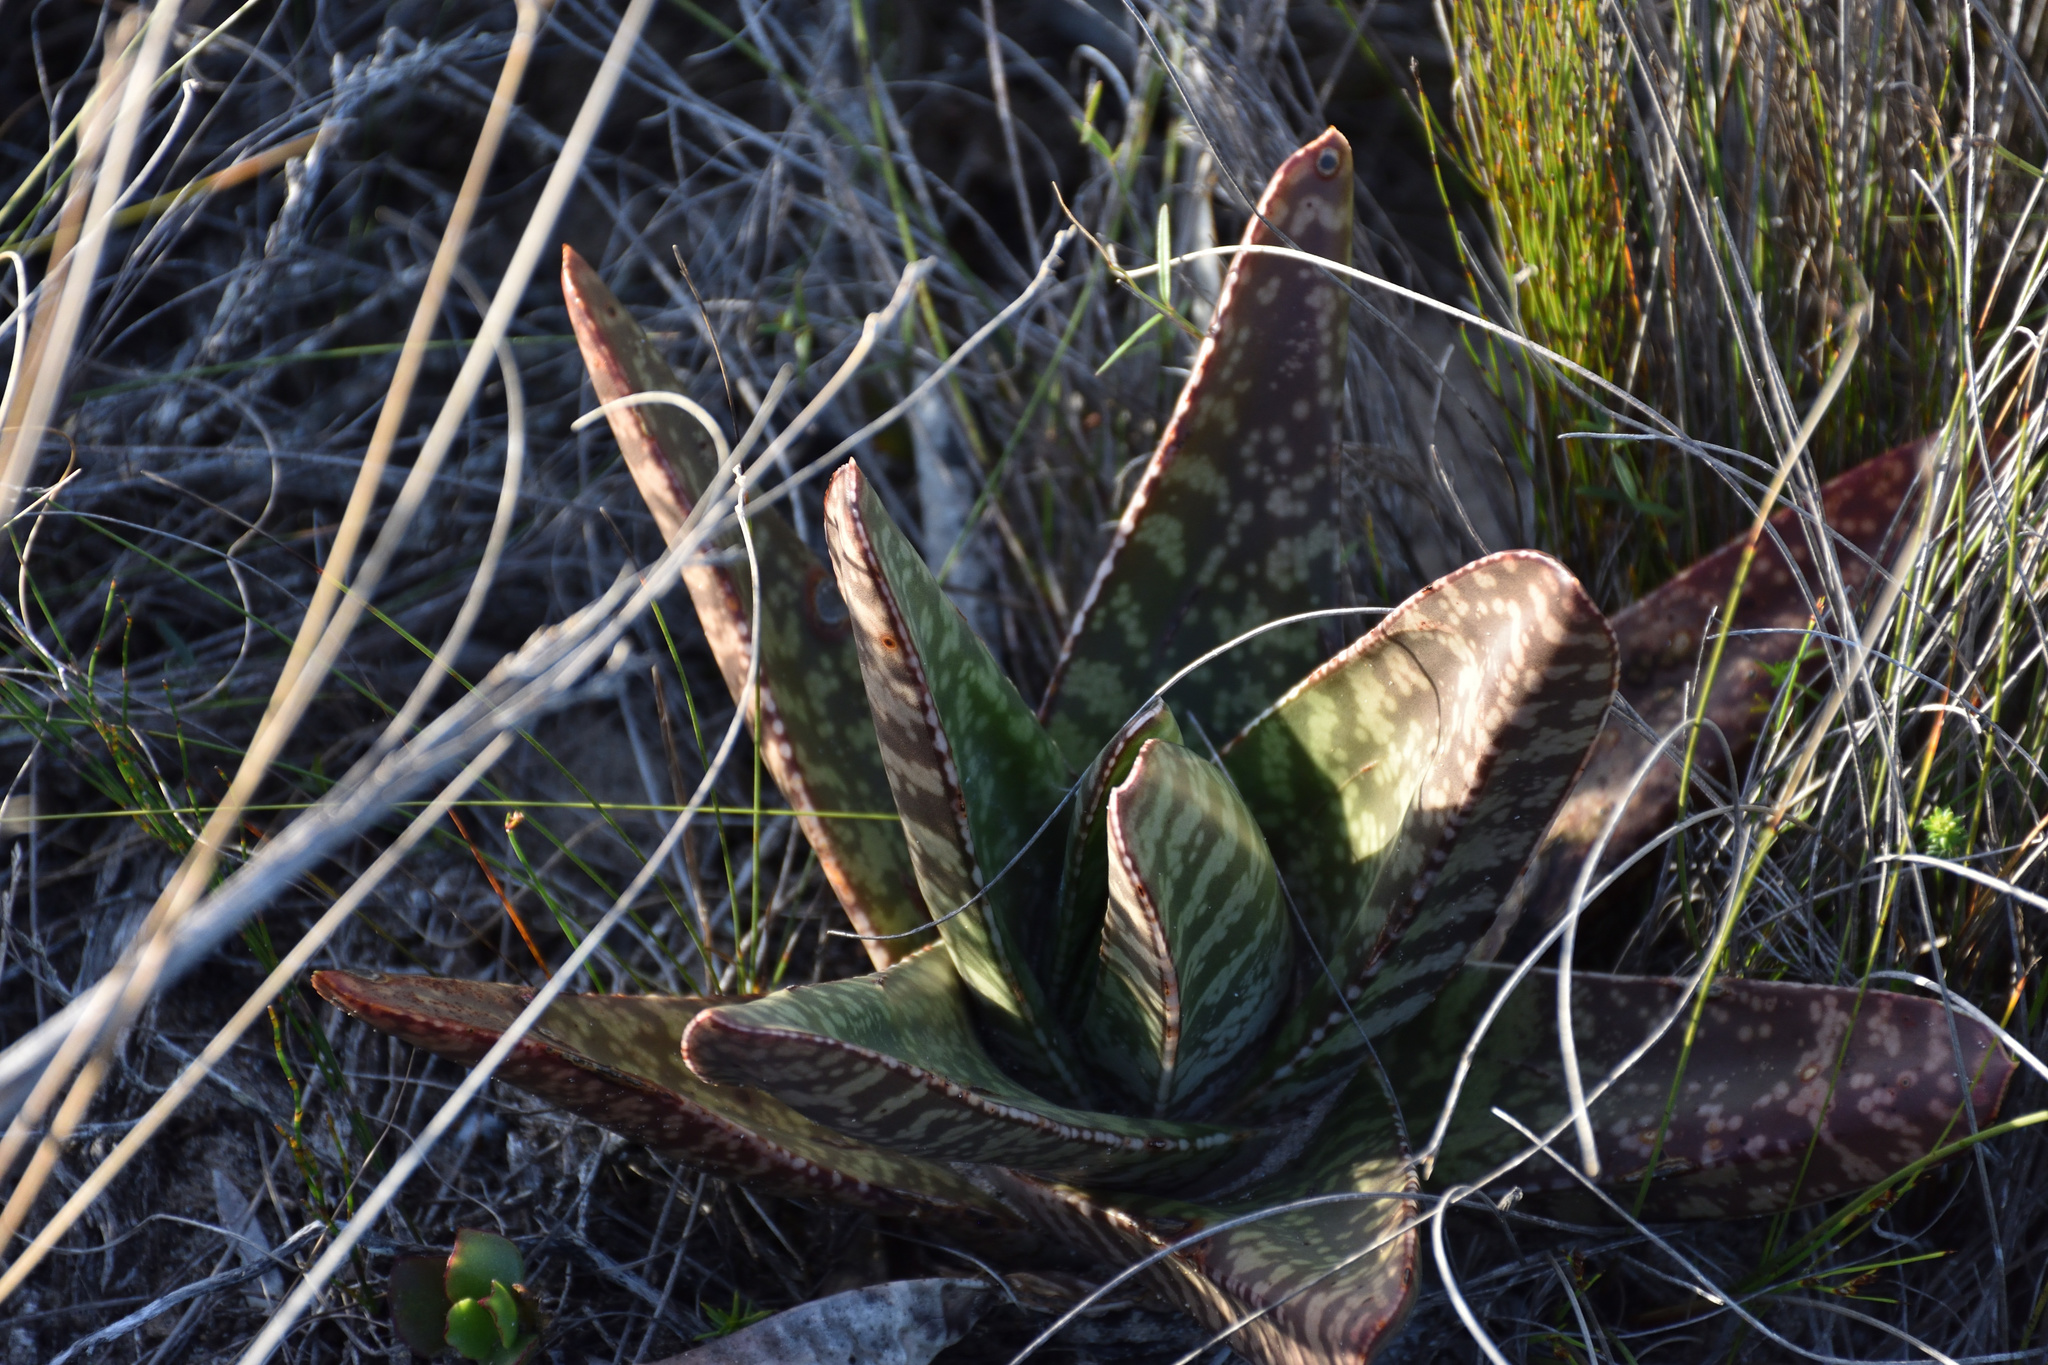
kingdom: Plantae
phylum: Tracheophyta
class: Liliopsida
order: Asparagales
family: Asphodelaceae
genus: Gasteria
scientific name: Gasteria acinacifolia
